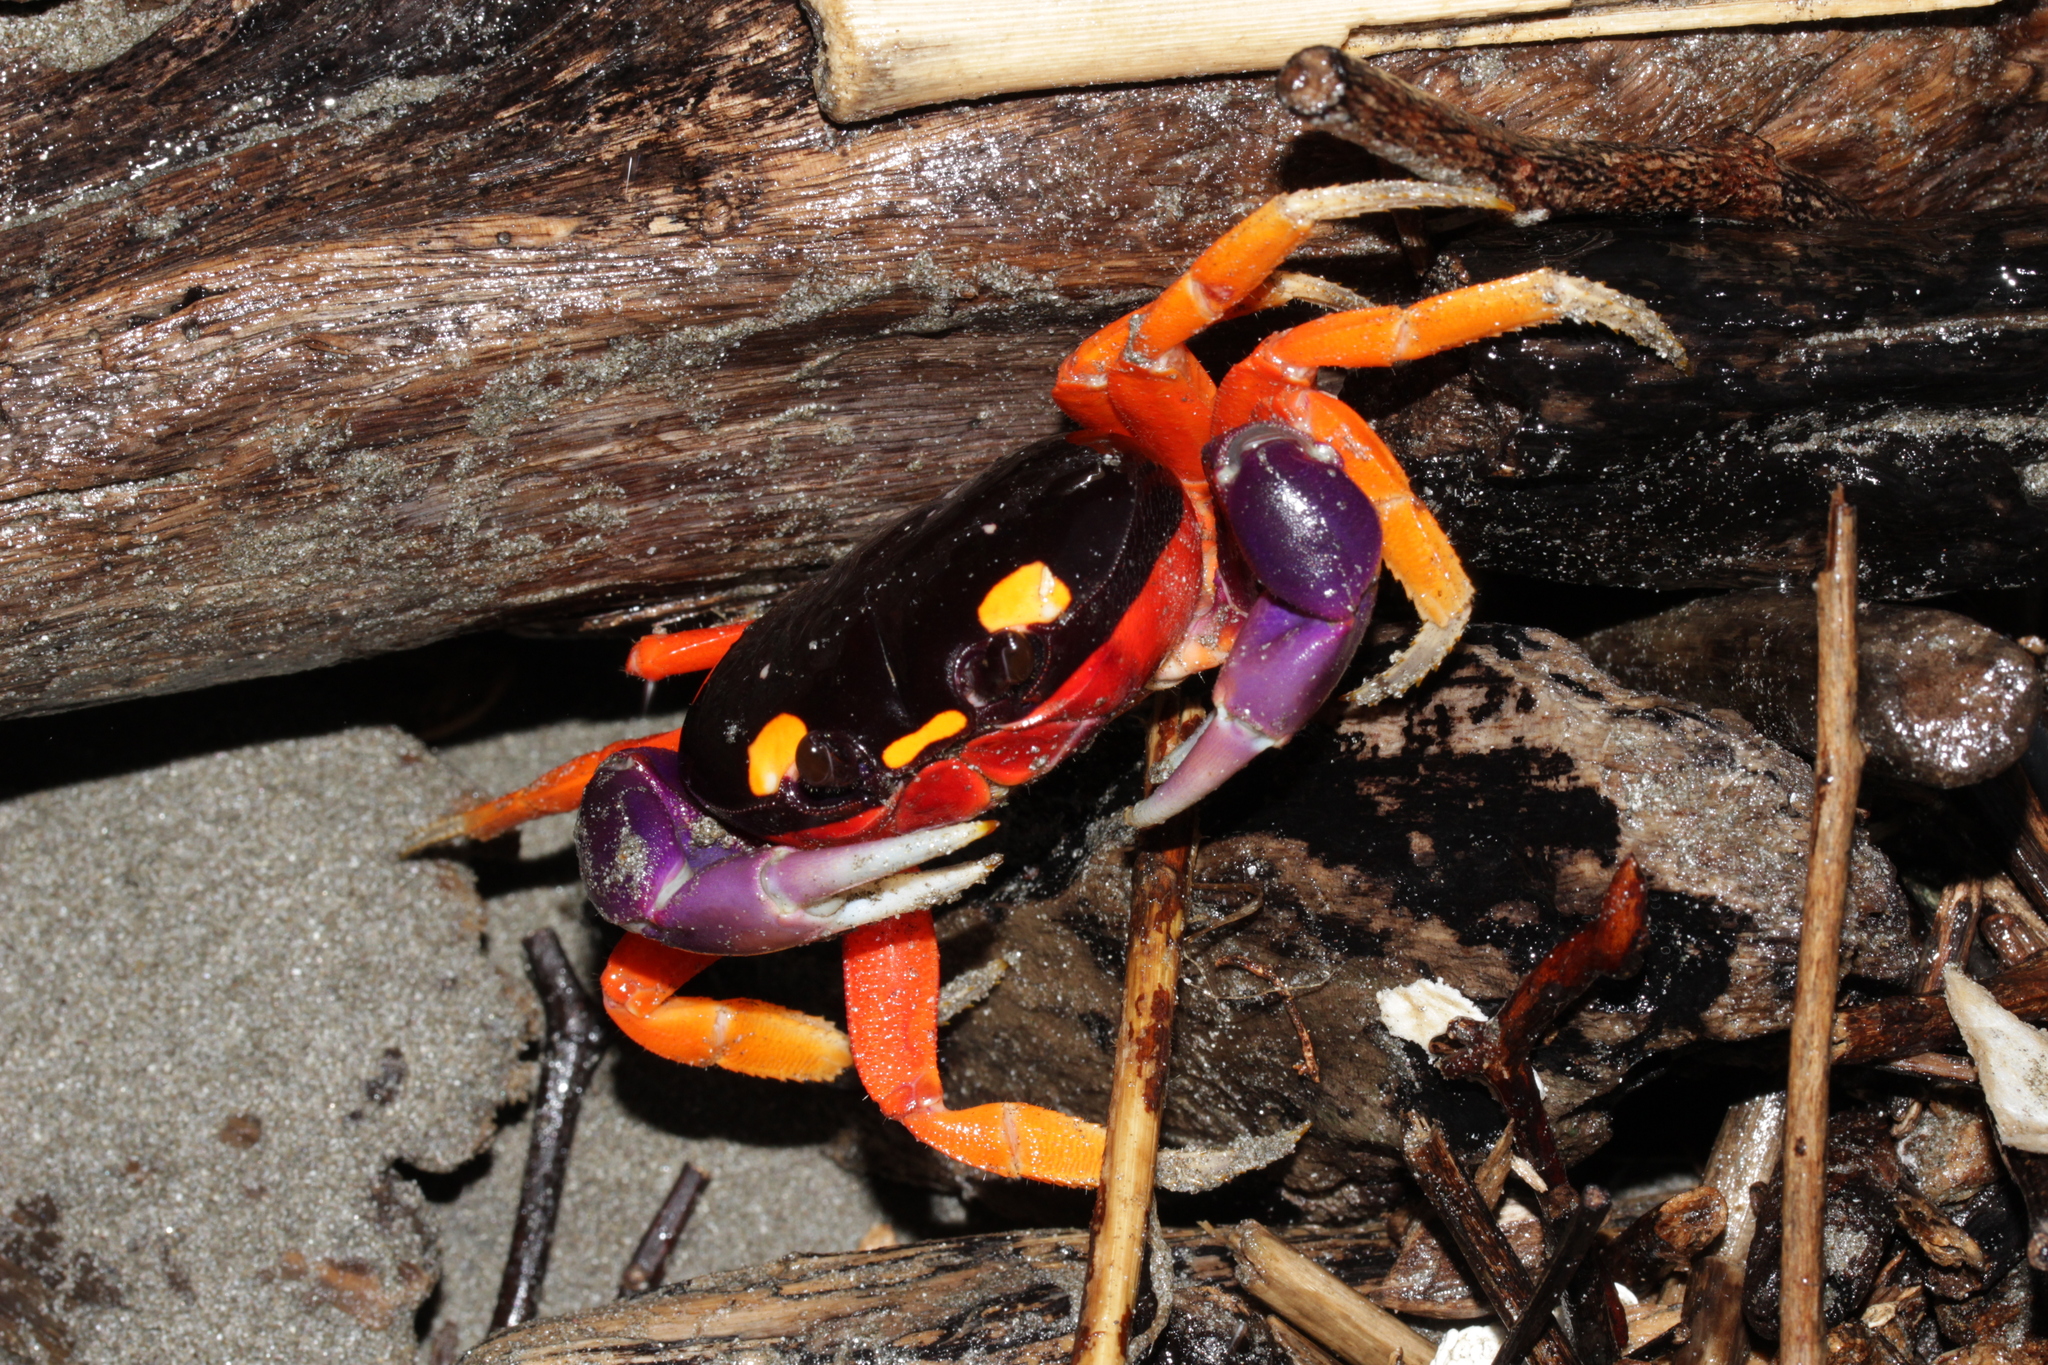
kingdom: Animalia
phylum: Arthropoda
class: Malacostraca
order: Decapoda
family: Gecarcinidae
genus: Gecarcinus
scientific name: Gecarcinus quadratus
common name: Halloween crab
